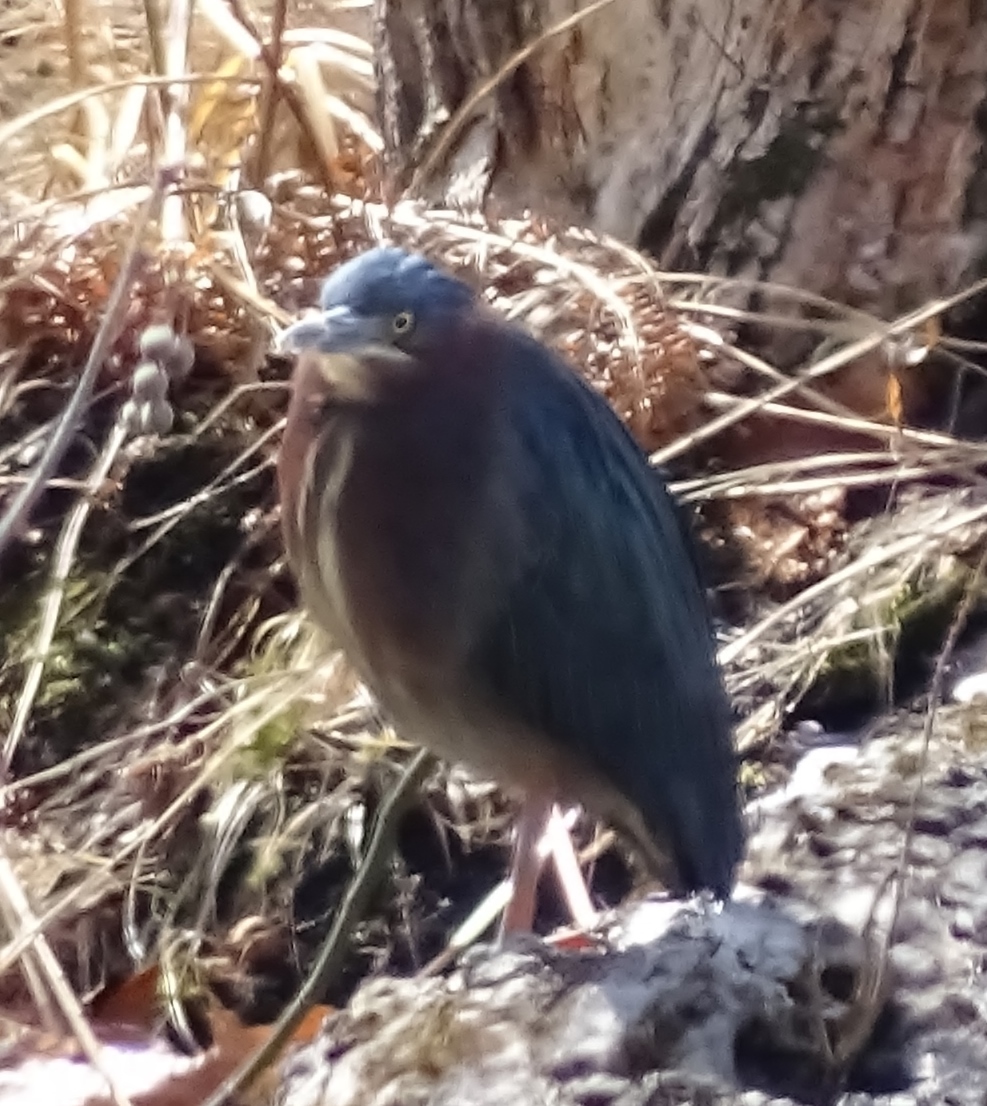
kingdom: Animalia
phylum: Chordata
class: Aves
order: Pelecaniformes
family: Ardeidae
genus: Butorides
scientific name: Butorides virescens
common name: Green heron
